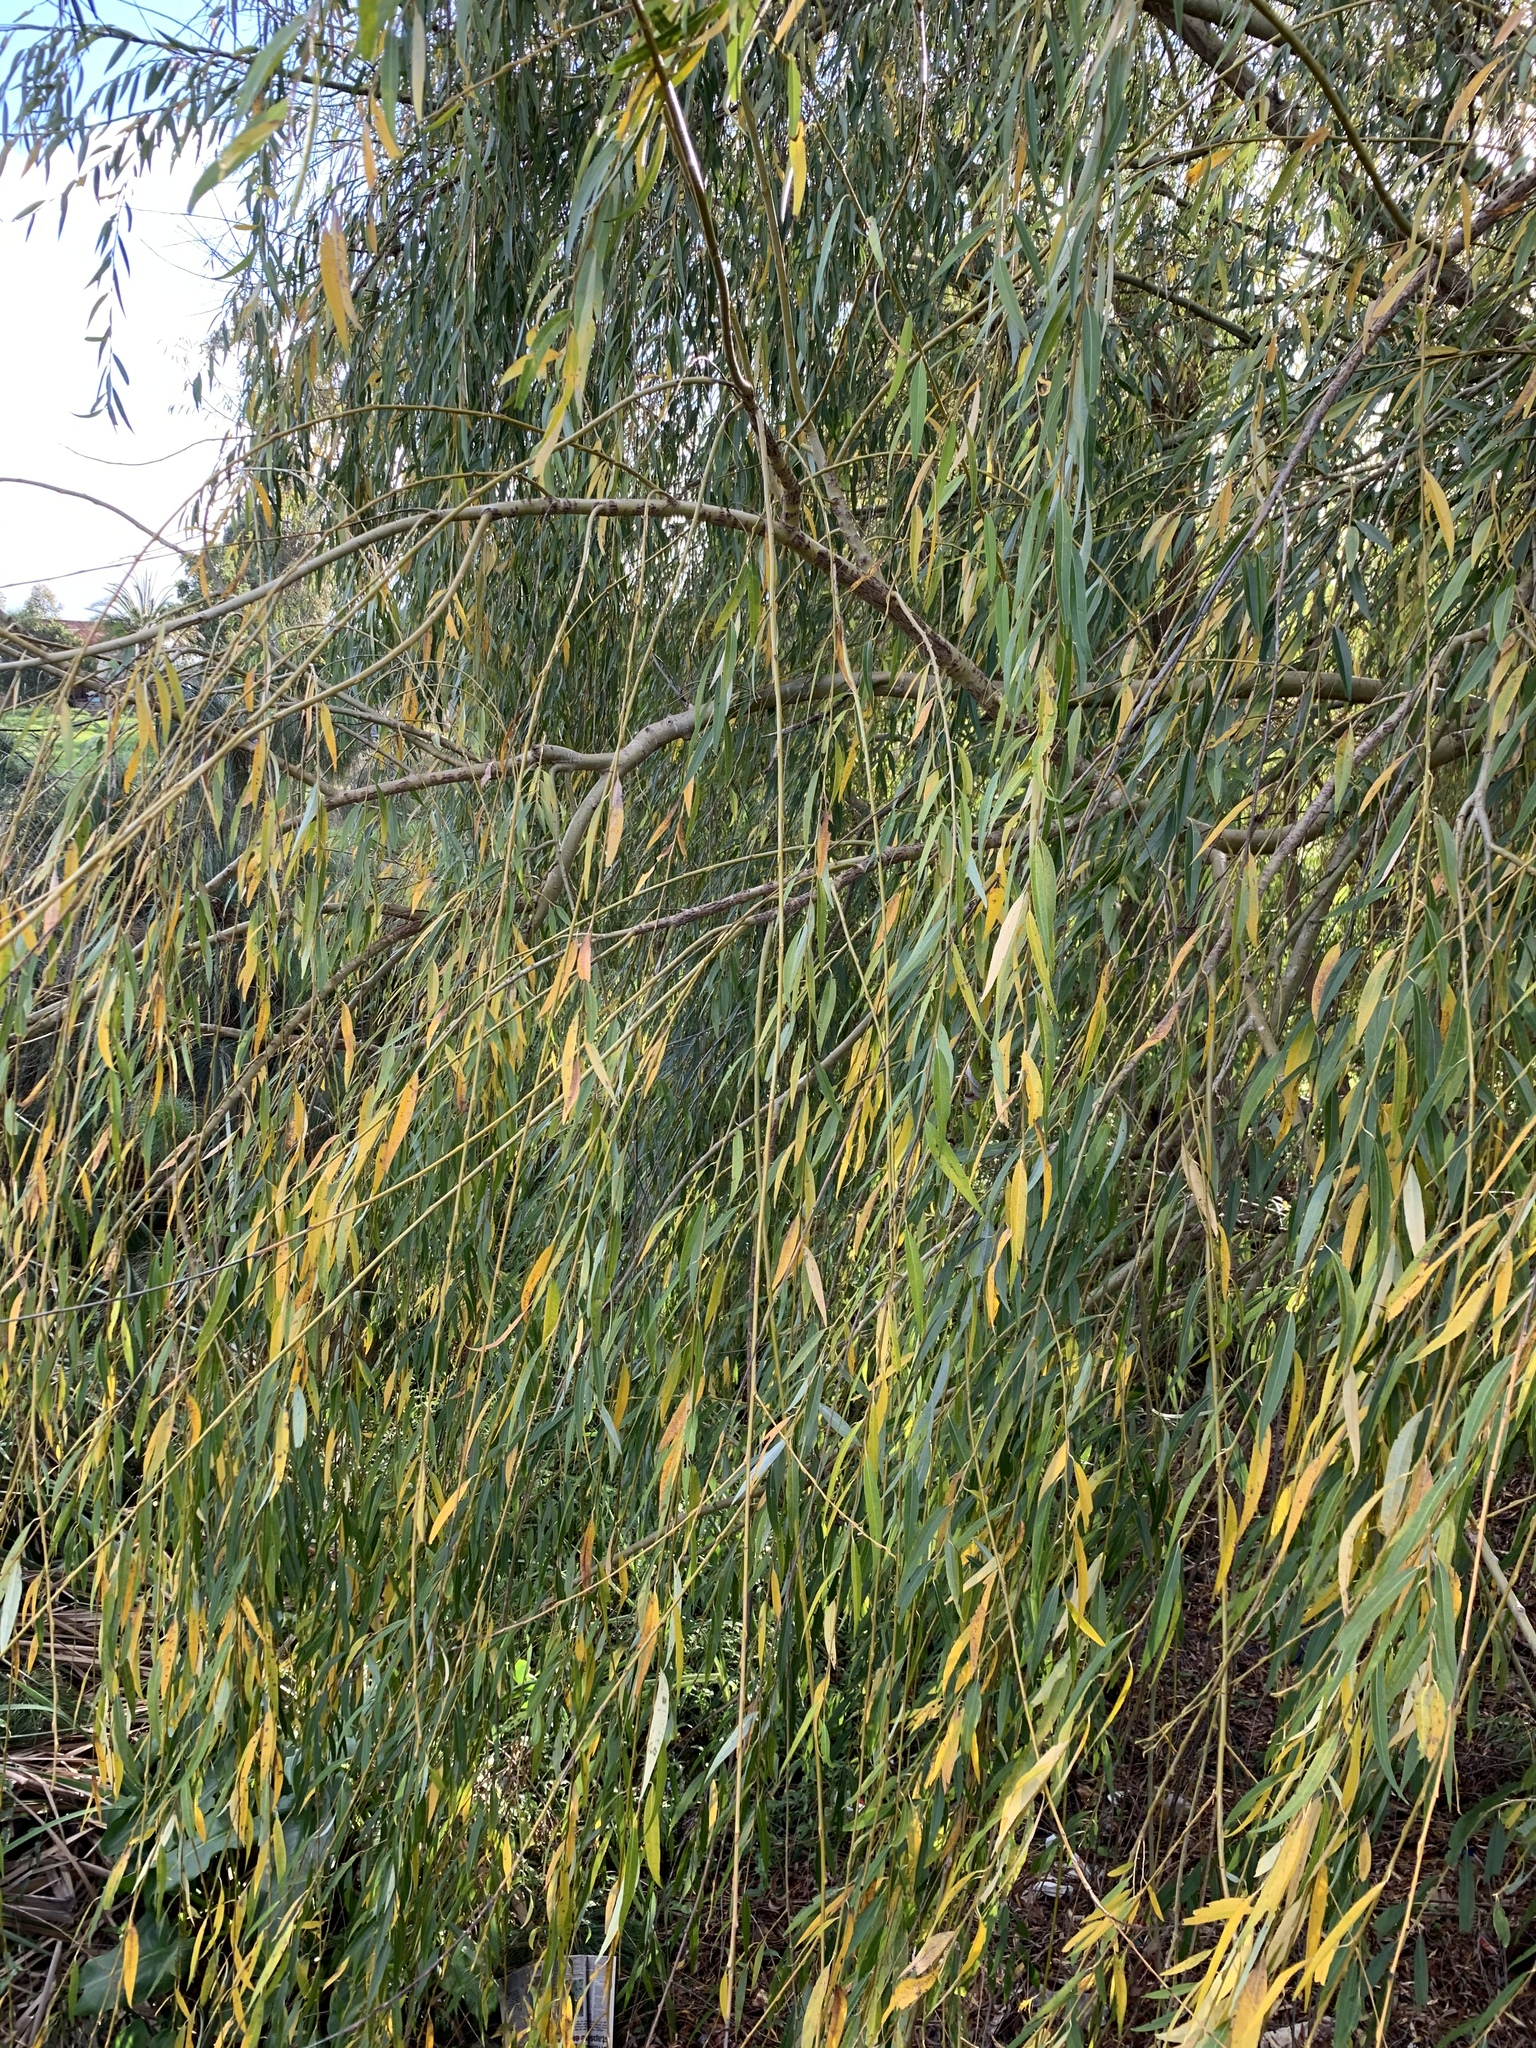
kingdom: Plantae
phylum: Tracheophyta
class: Magnoliopsida
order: Malpighiales
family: Salicaceae
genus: Salix
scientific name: Salix babylonica
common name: Weeping willow
